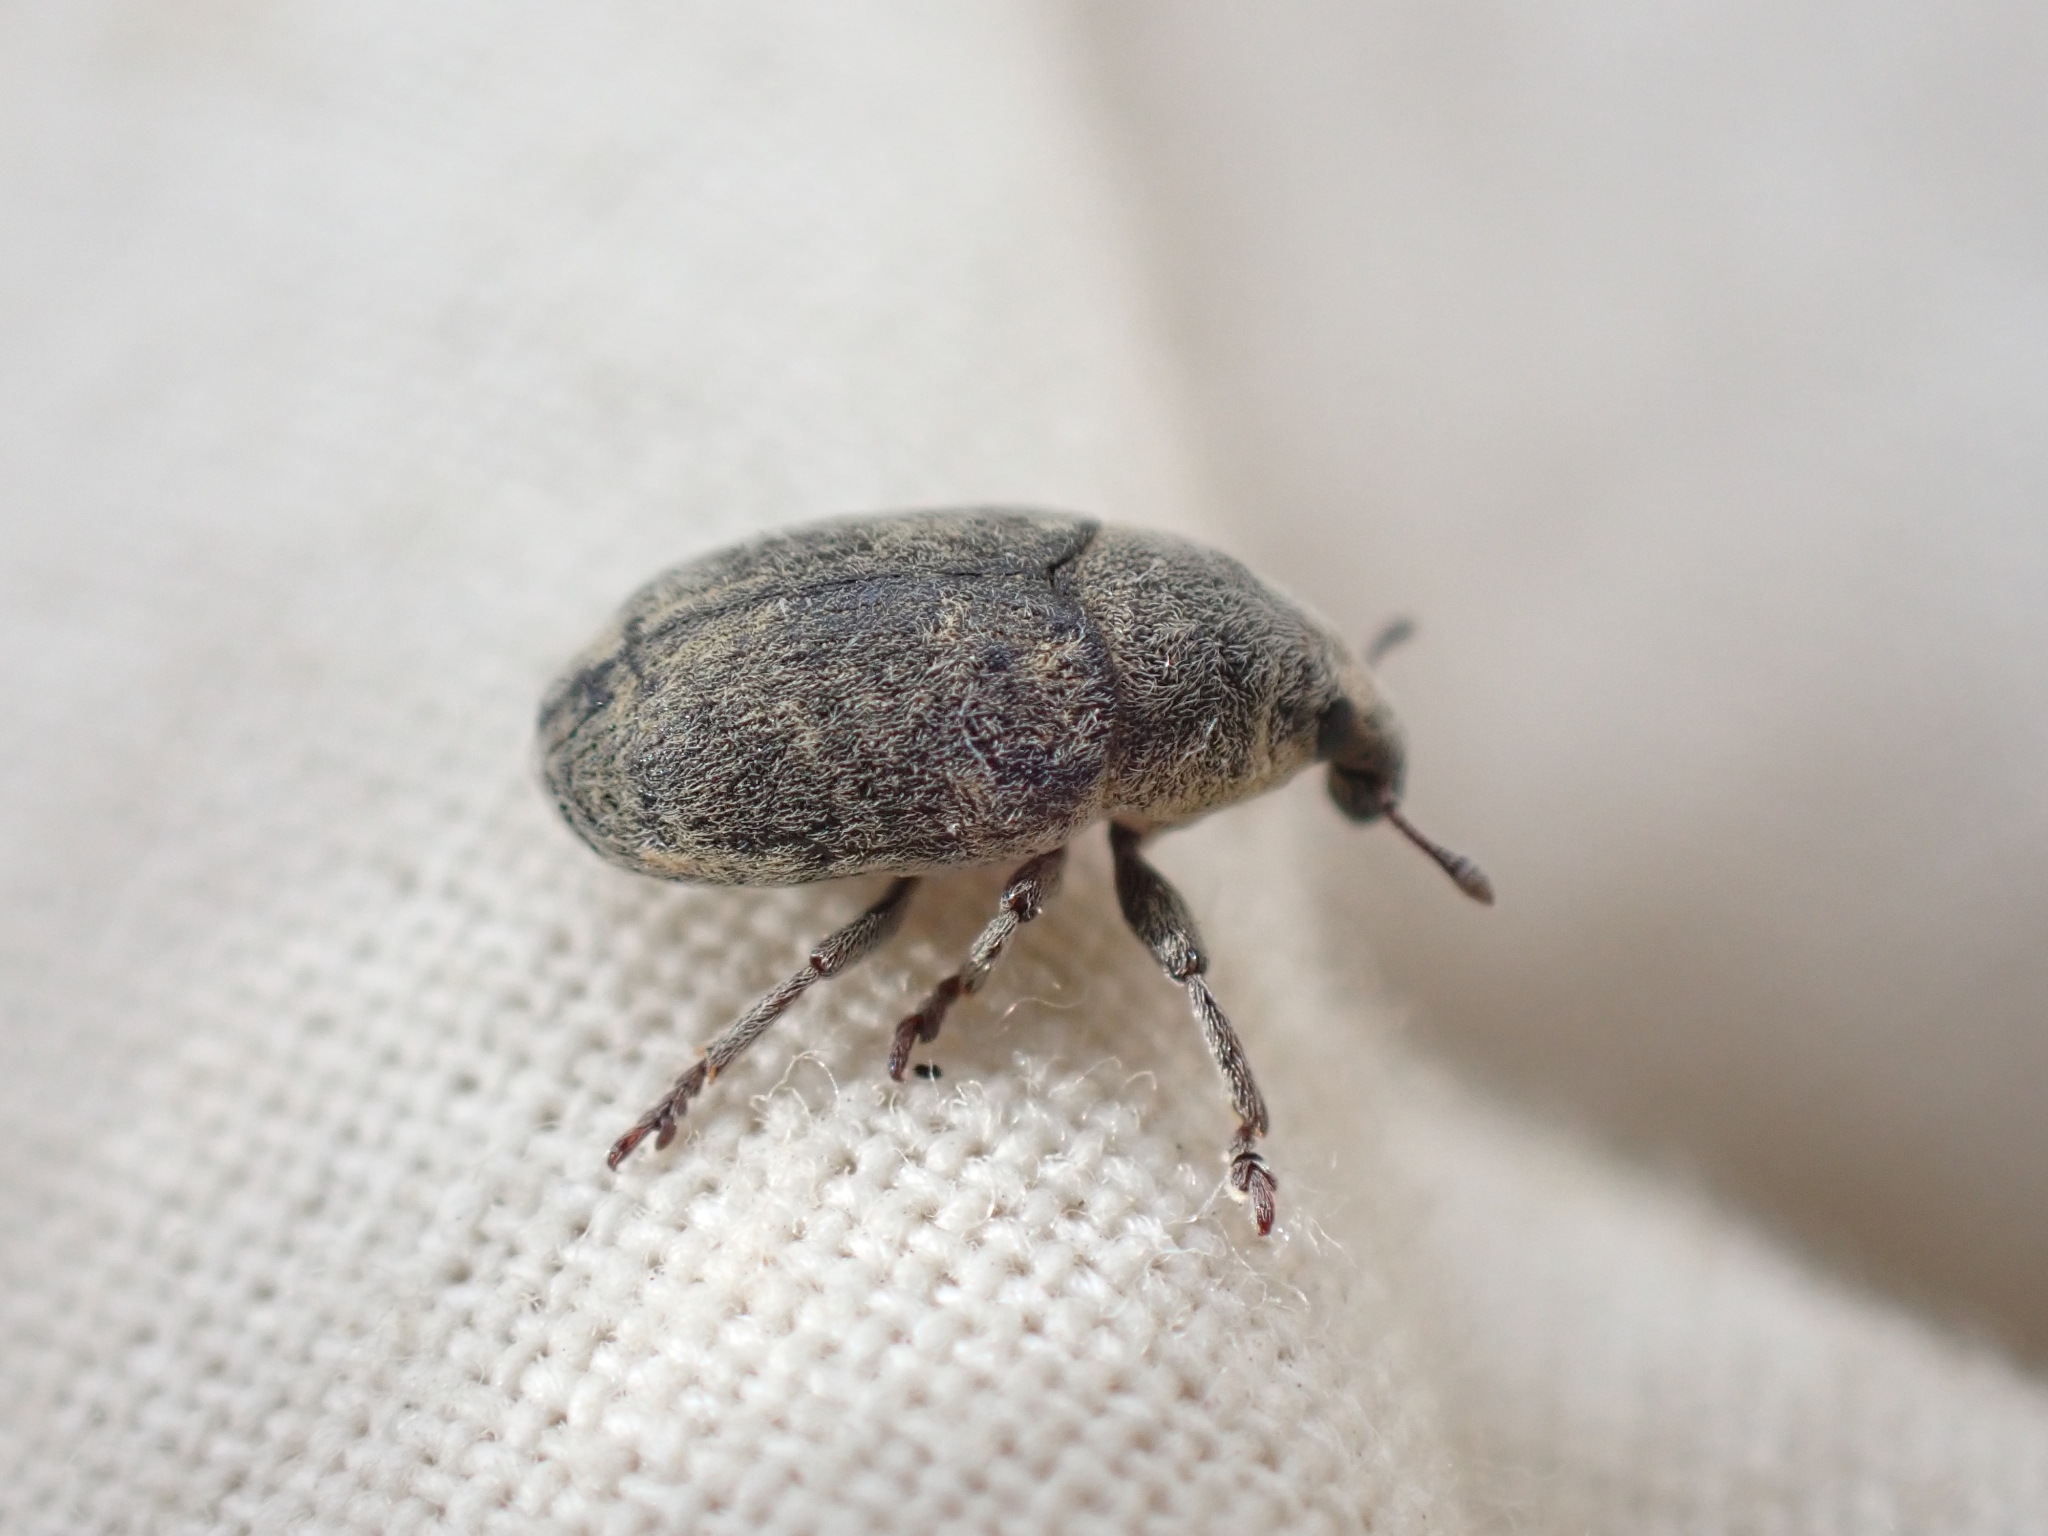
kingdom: Animalia
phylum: Arthropoda
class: Insecta
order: Coleoptera
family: Curculionidae
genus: Larinus
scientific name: Larinus minutus
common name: Weevil
